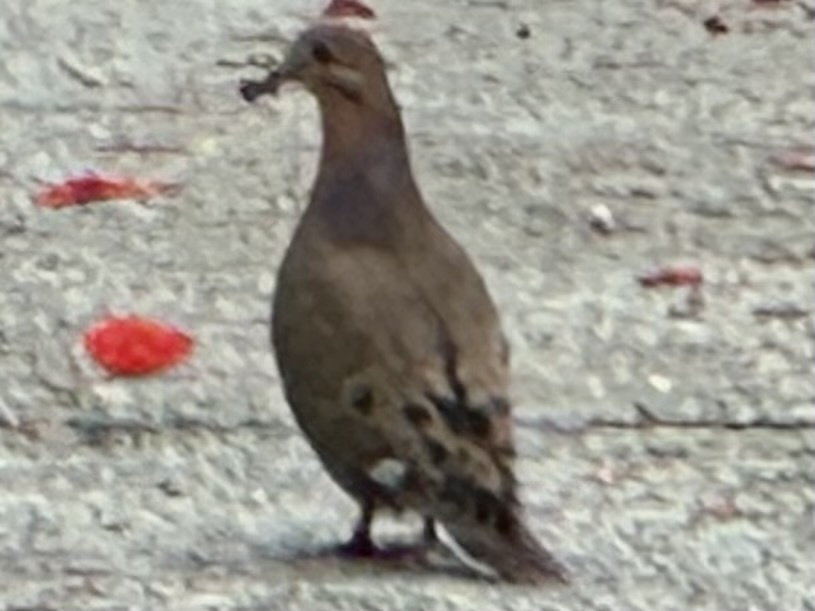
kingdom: Animalia
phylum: Chordata
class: Aves
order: Columbiformes
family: Columbidae
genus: Zenaida
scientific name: Zenaida aurita
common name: Zenaida dove
